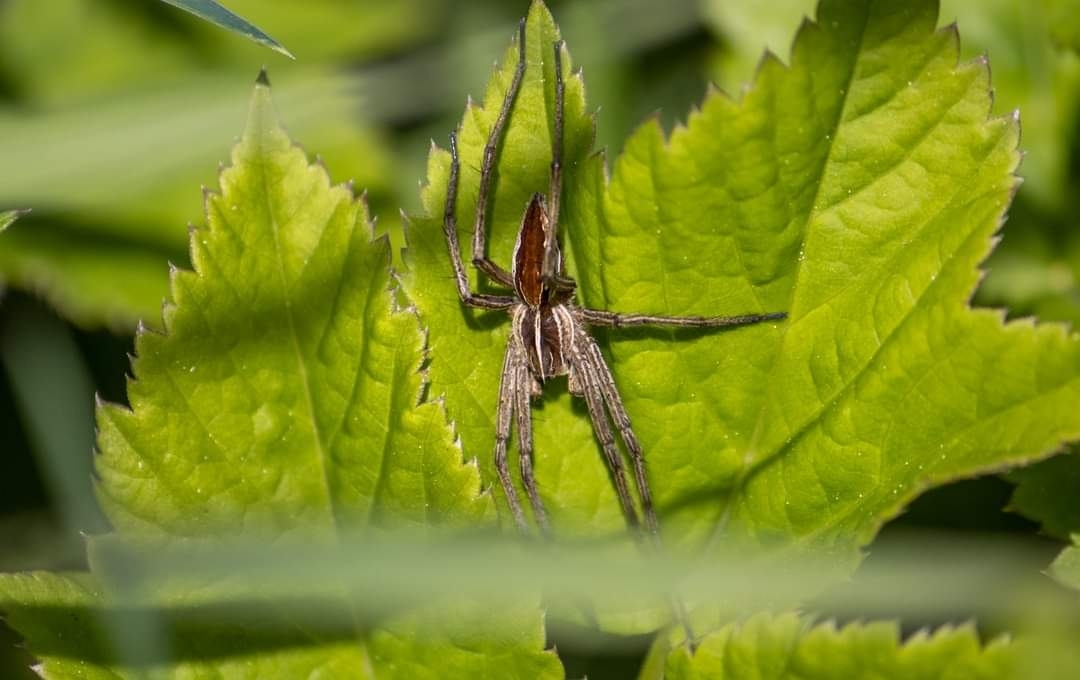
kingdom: Animalia
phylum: Arthropoda
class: Arachnida
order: Araneae
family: Pisauridae
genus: Pisaura
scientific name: Pisaura mirabilis
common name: Tent spider
